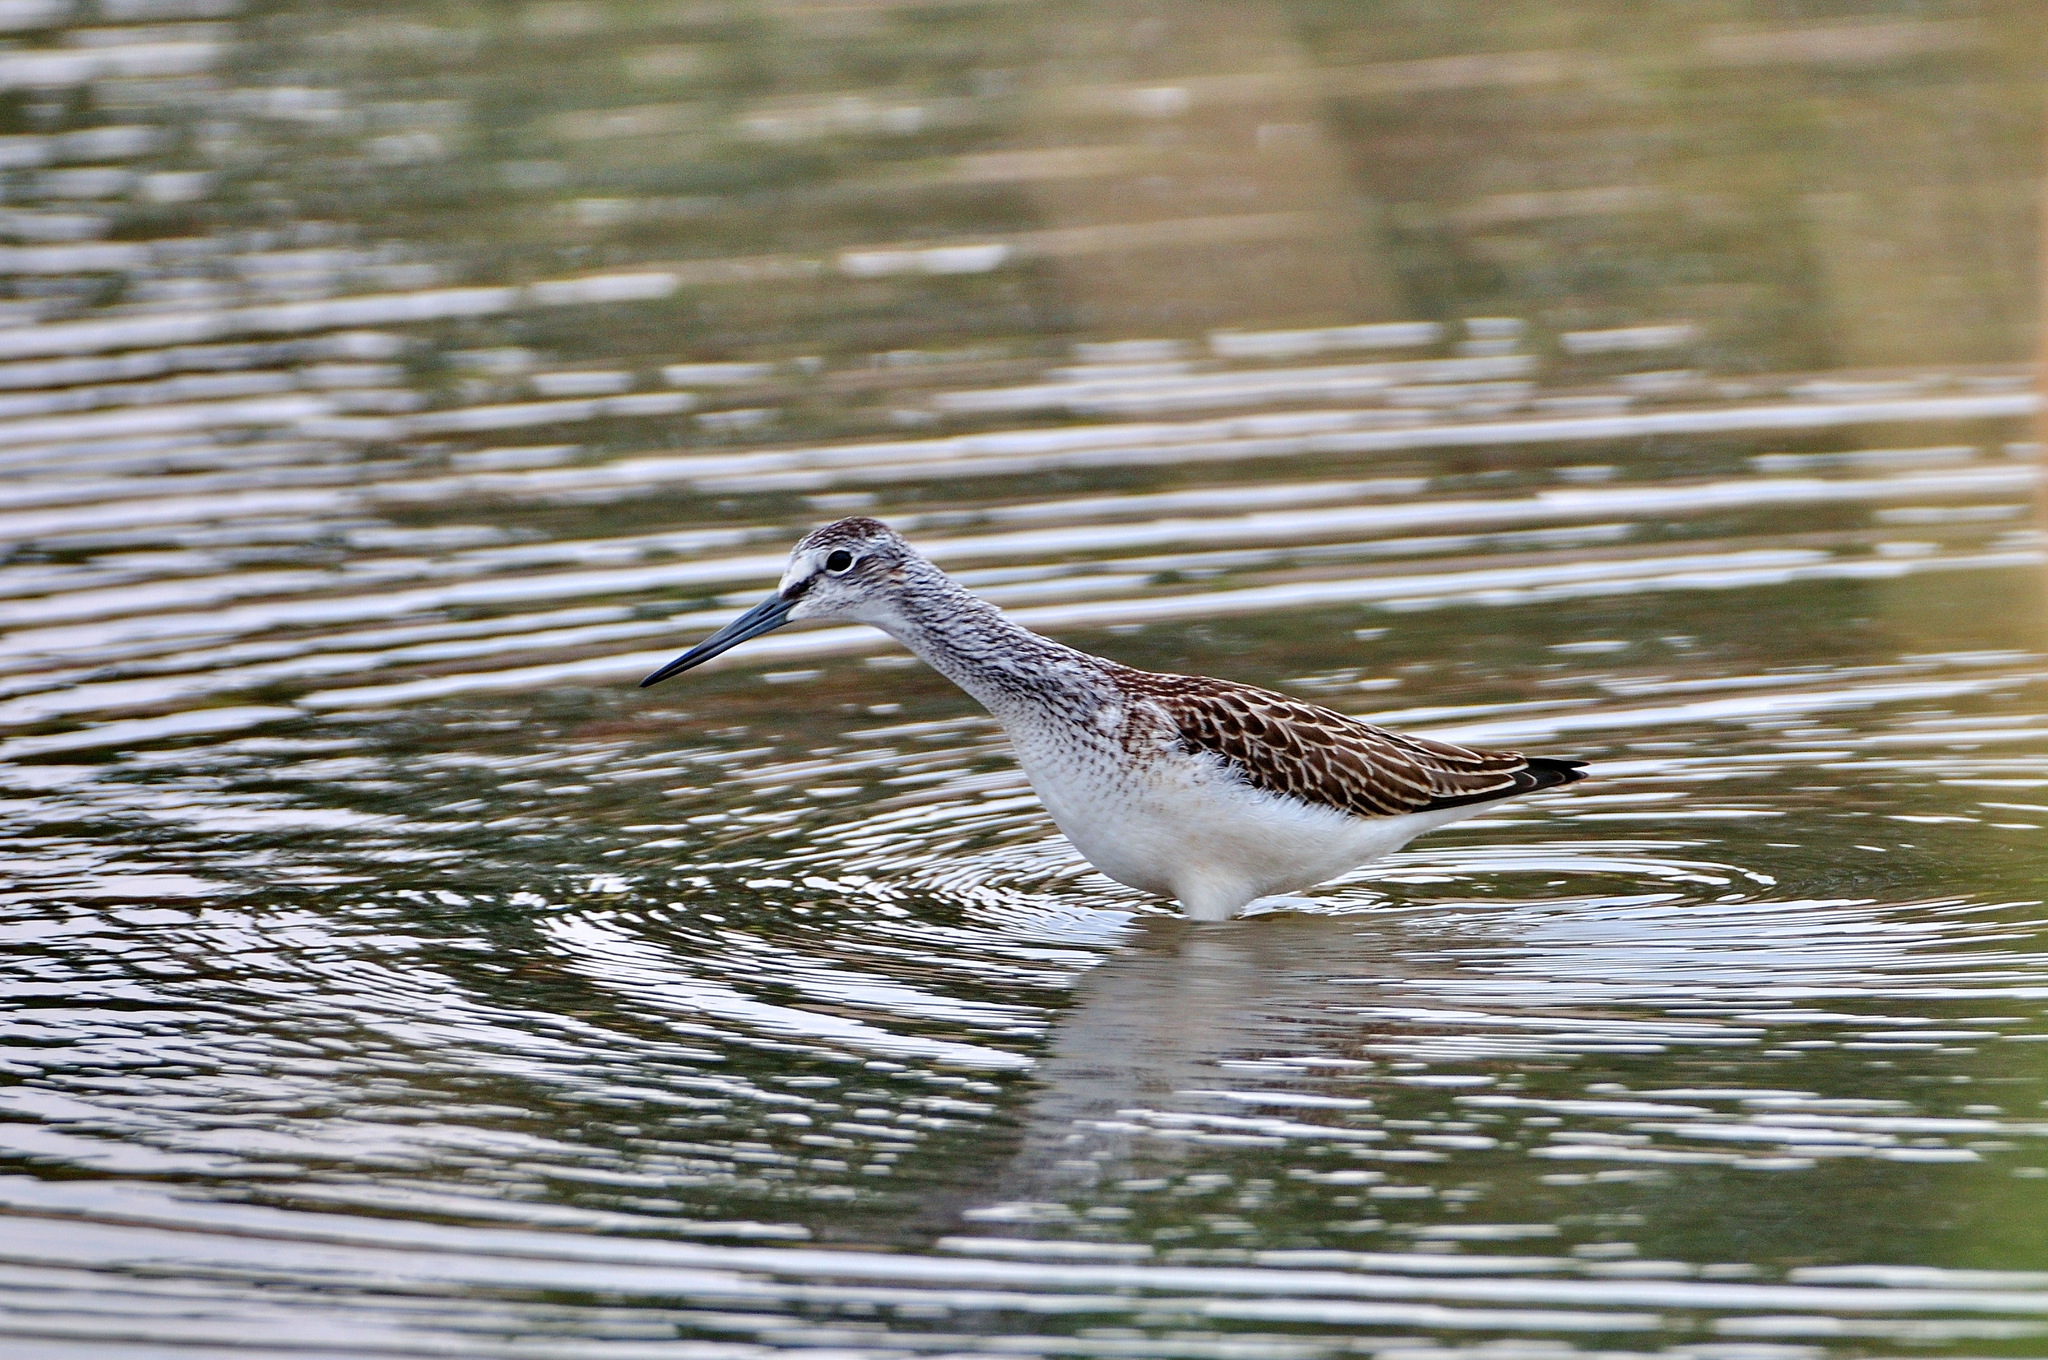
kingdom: Animalia
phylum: Chordata
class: Aves
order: Charadriiformes
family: Scolopacidae
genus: Tringa
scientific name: Tringa nebularia
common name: Common greenshank
